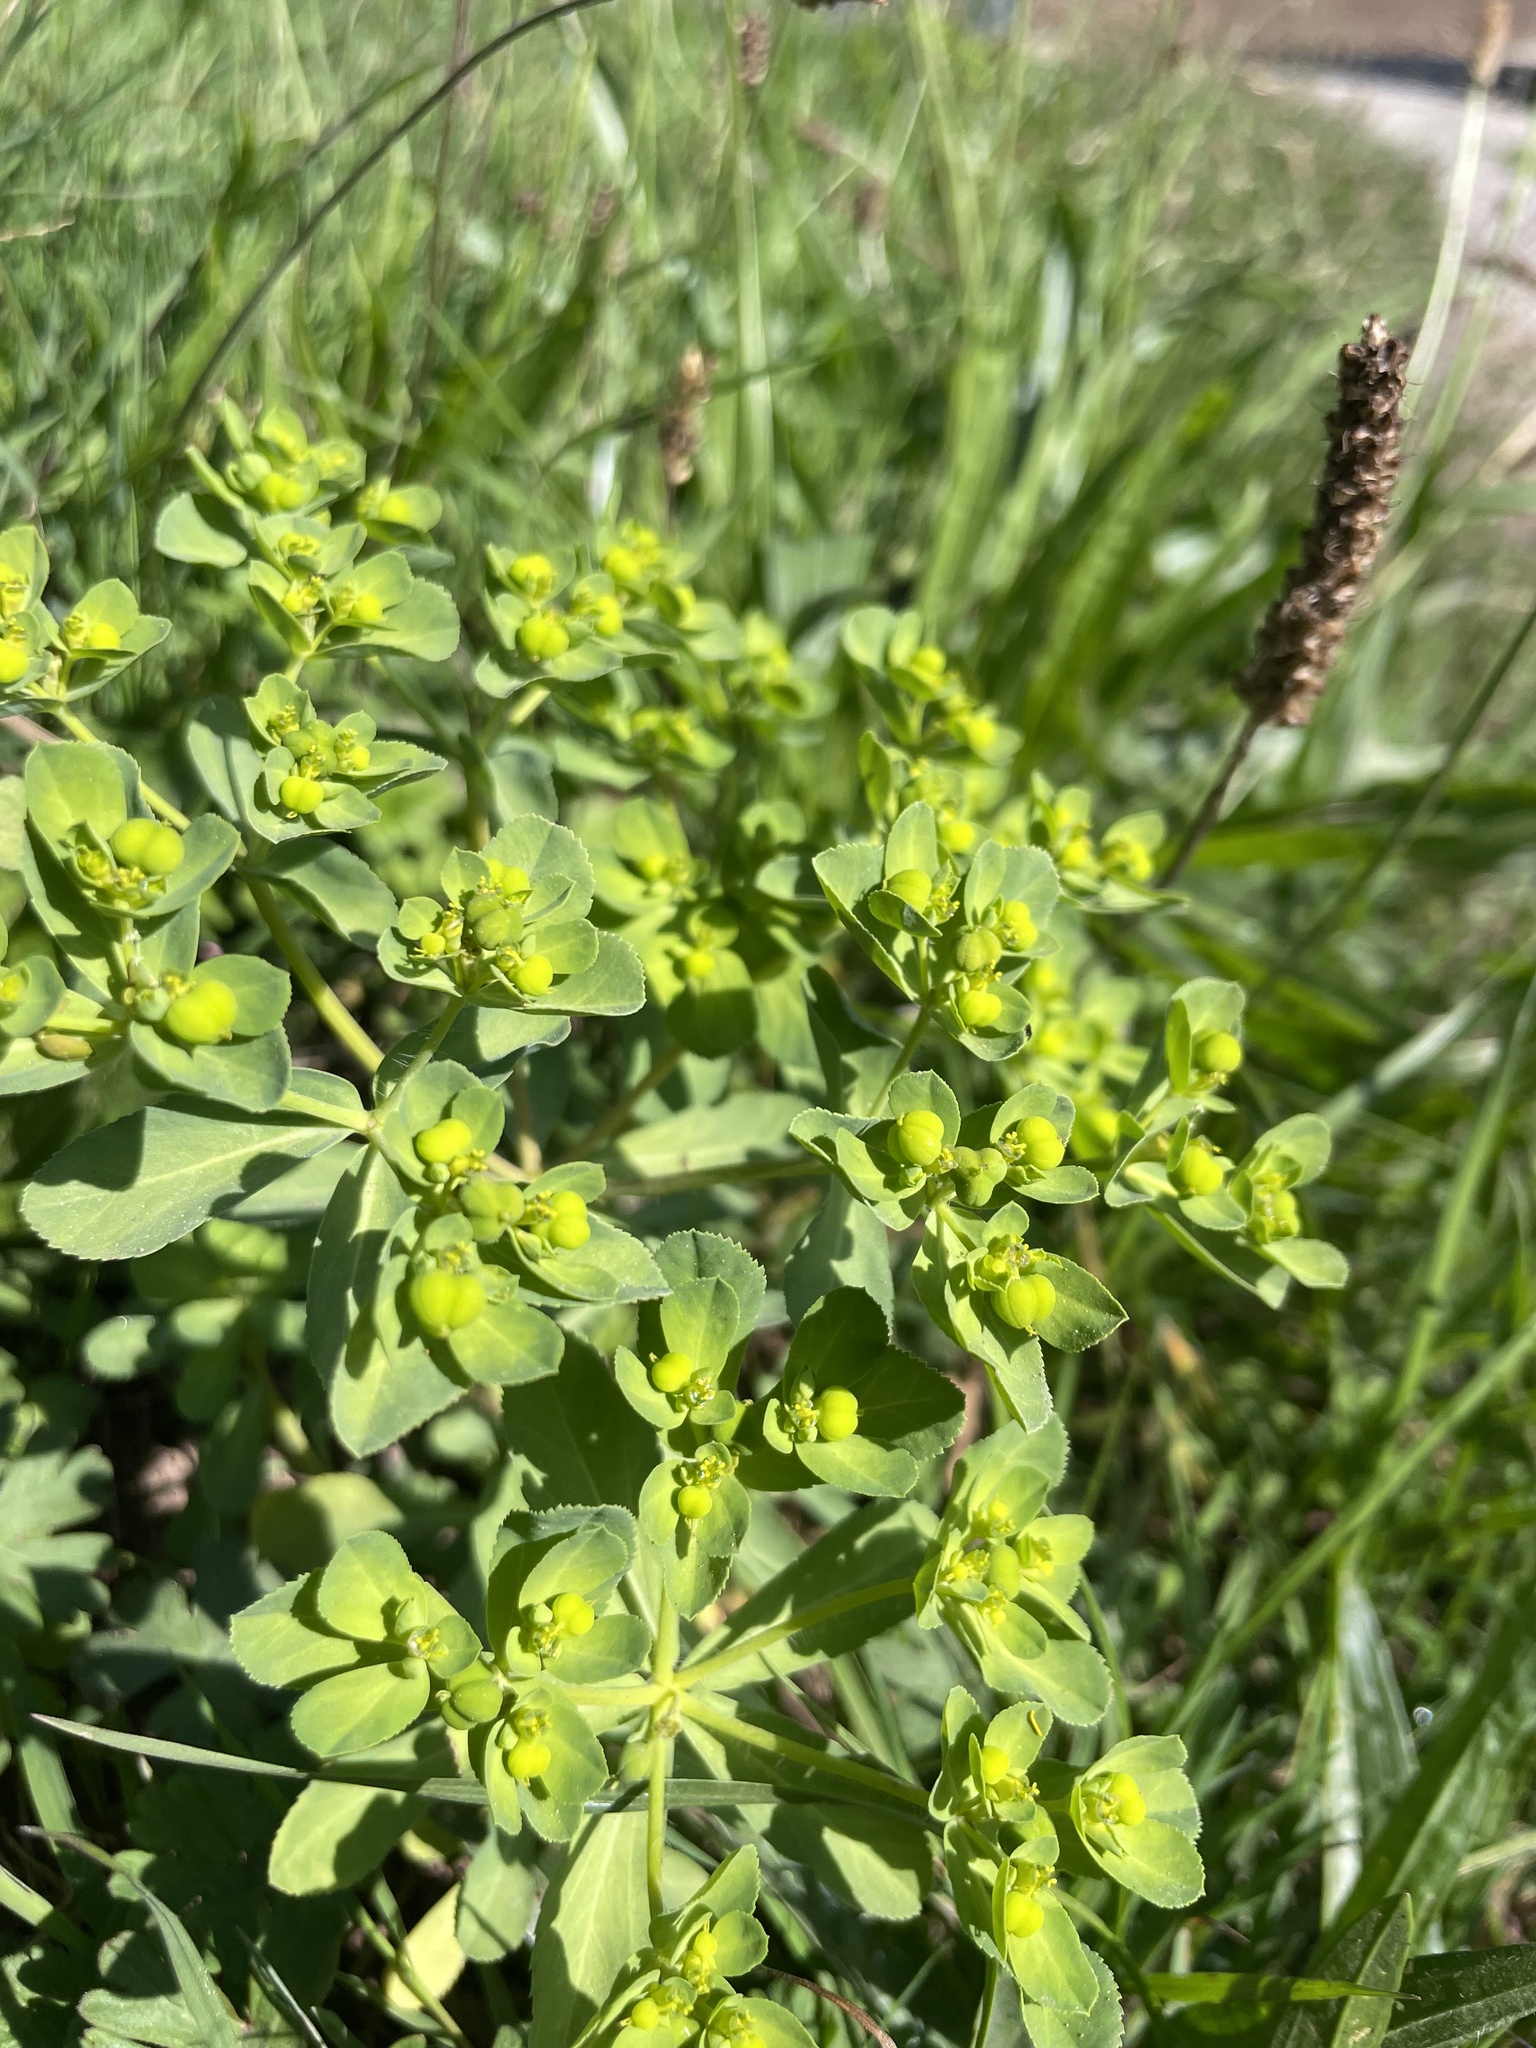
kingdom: Plantae
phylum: Tracheophyta
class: Magnoliopsida
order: Malpighiales
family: Euphorbiaceae
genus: Euphorbia
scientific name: Euphorbia helioscopia
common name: Sun spurge
